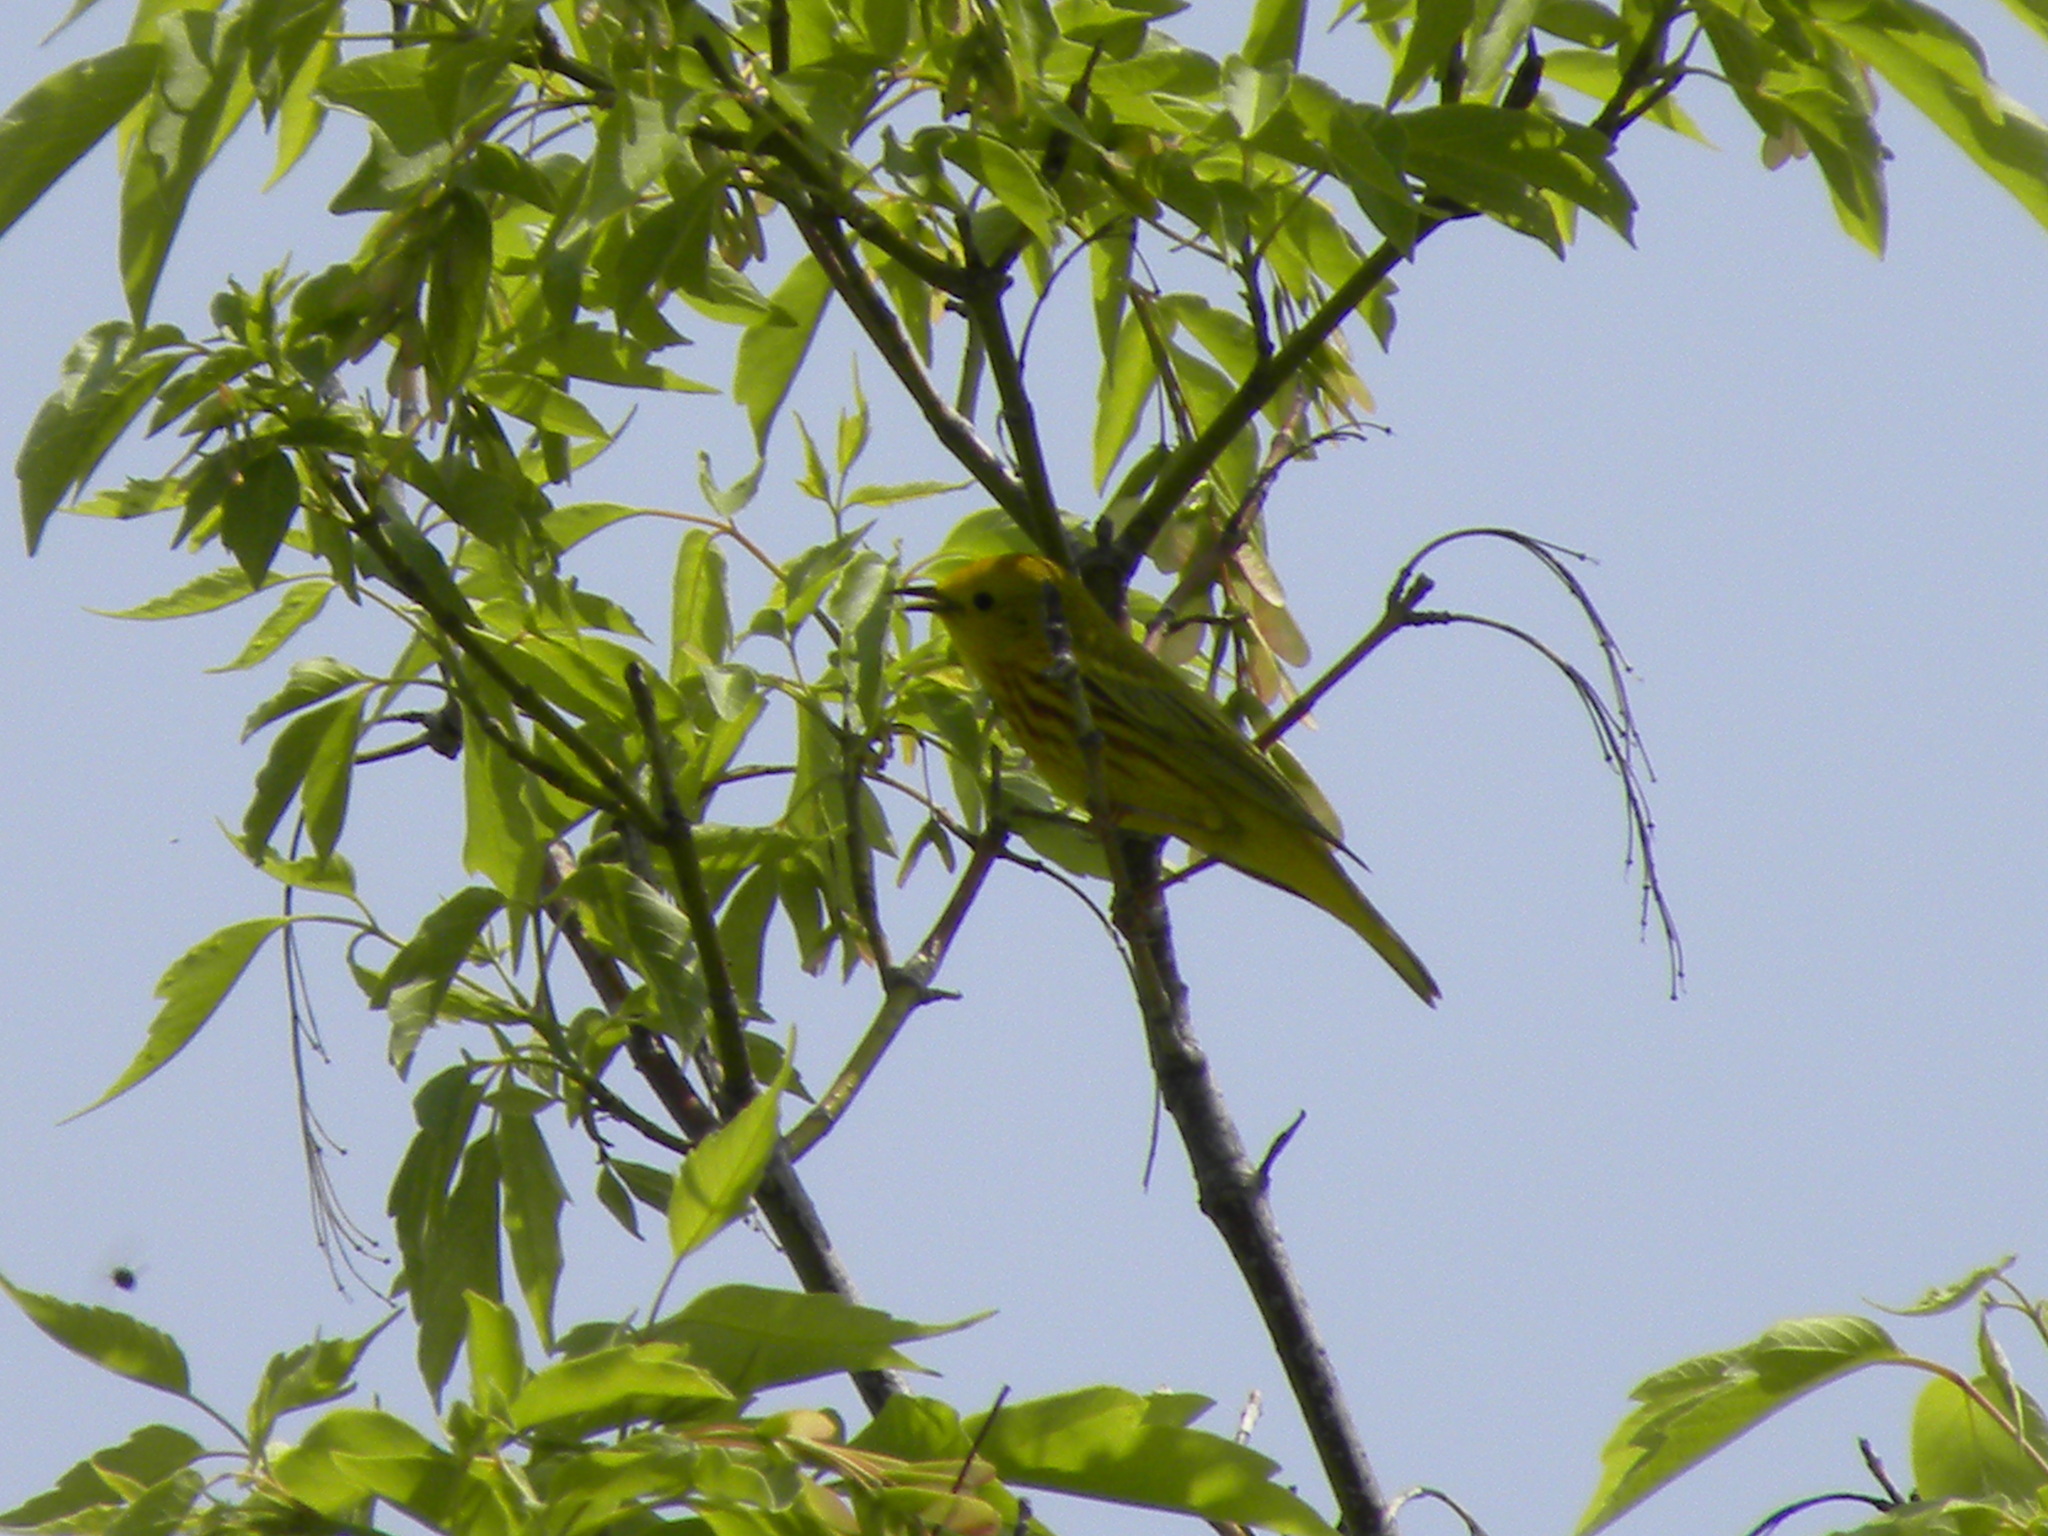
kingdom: Animalia
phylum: Chordata
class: Aves
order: Passeriformes
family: Parulidae
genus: Setophaga
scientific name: Setophaga petechia
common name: Yellow warbler
